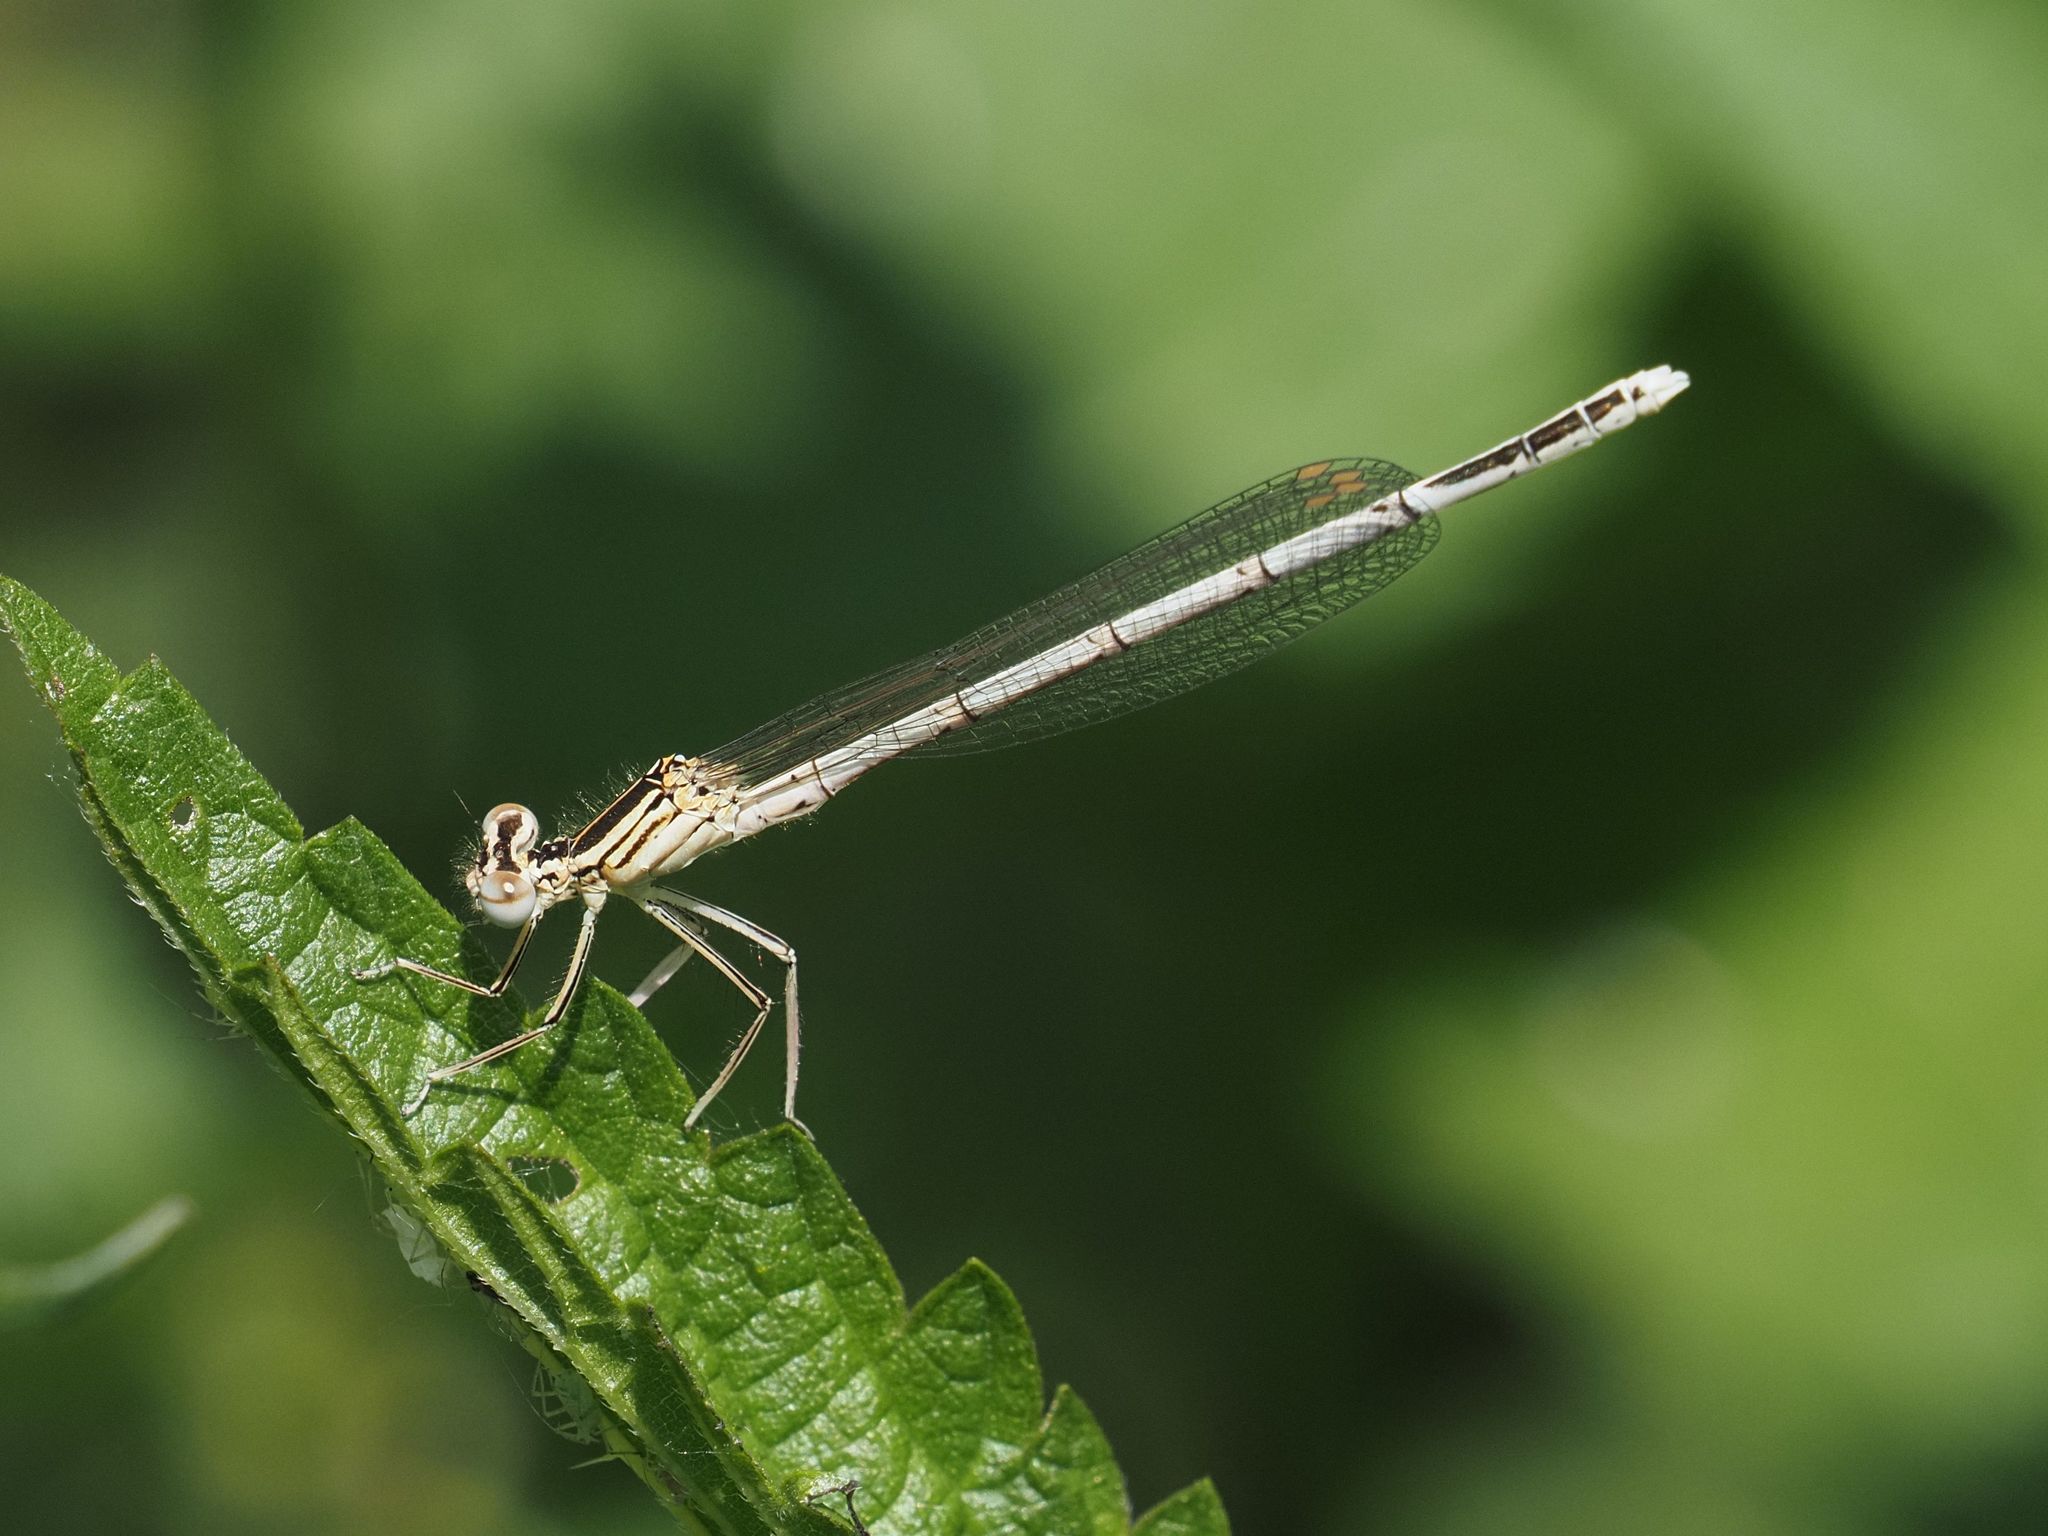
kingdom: Animalia
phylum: Arthropoda
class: Insecta
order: Odonata
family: Platycnemididae
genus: Platycnemis
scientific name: Platycnemis pennipes
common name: White-legged damselfly
